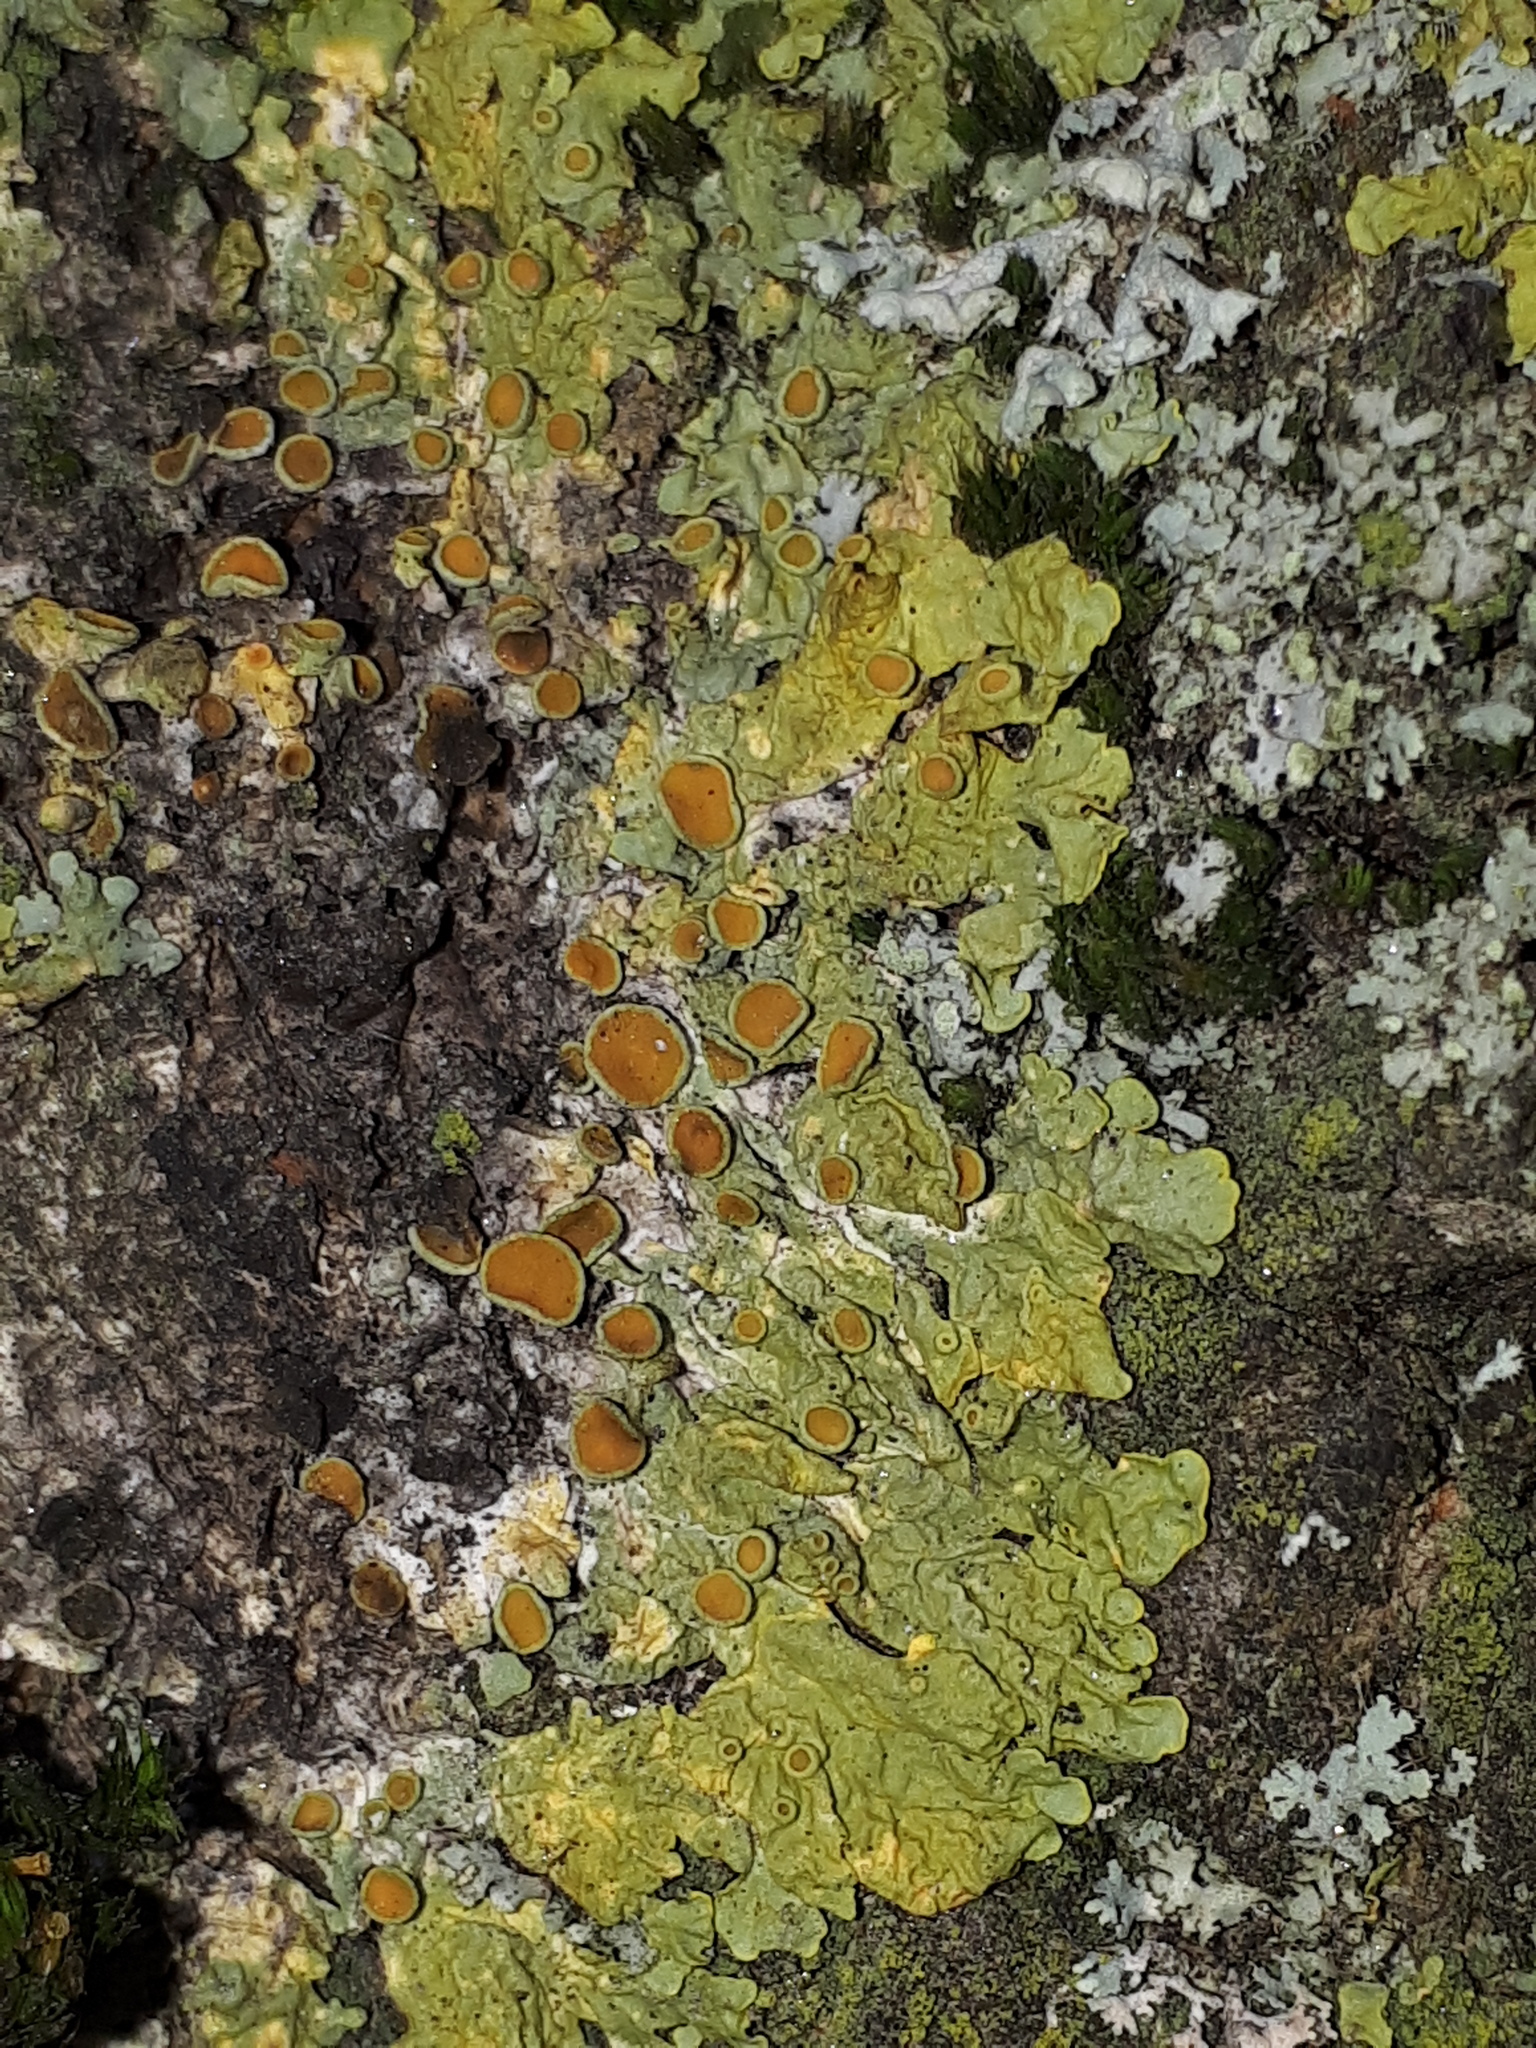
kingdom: Fungi
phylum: Ascomycota
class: Lecanoromycetes
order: Teloschistales
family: Teloschistaceae
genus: Xanthoria
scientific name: Xanthoria parietina
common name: Common orange lichen
